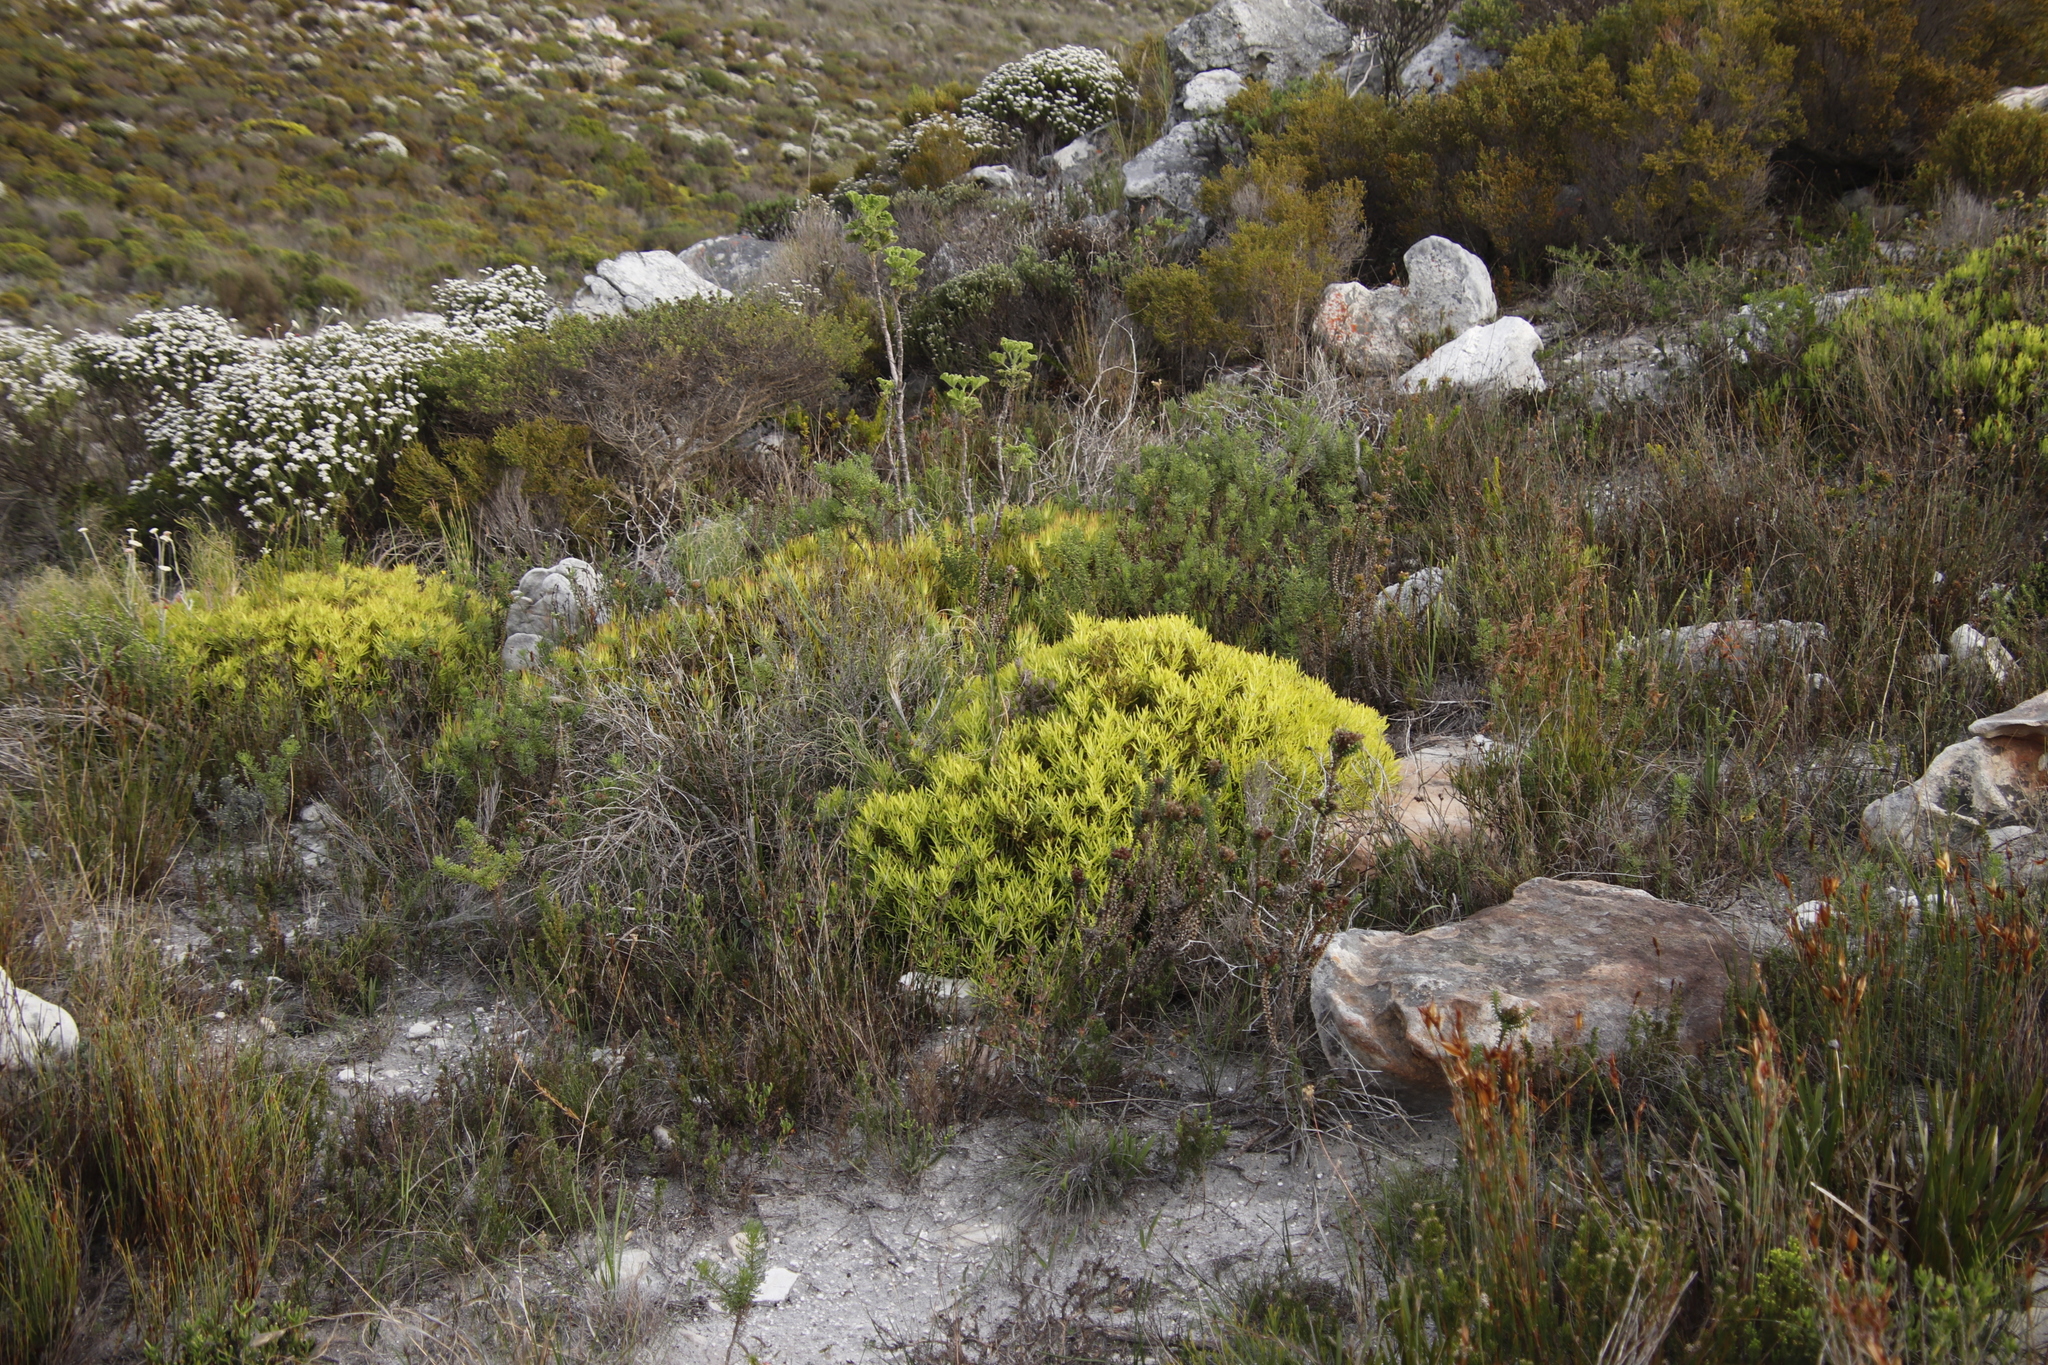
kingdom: Plantae
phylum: Tracheophyta
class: Magnoliopsida
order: Proteales
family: Proteaceae
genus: Leucadendron
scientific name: Leucadendron salignum
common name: Common sunshine conebush
